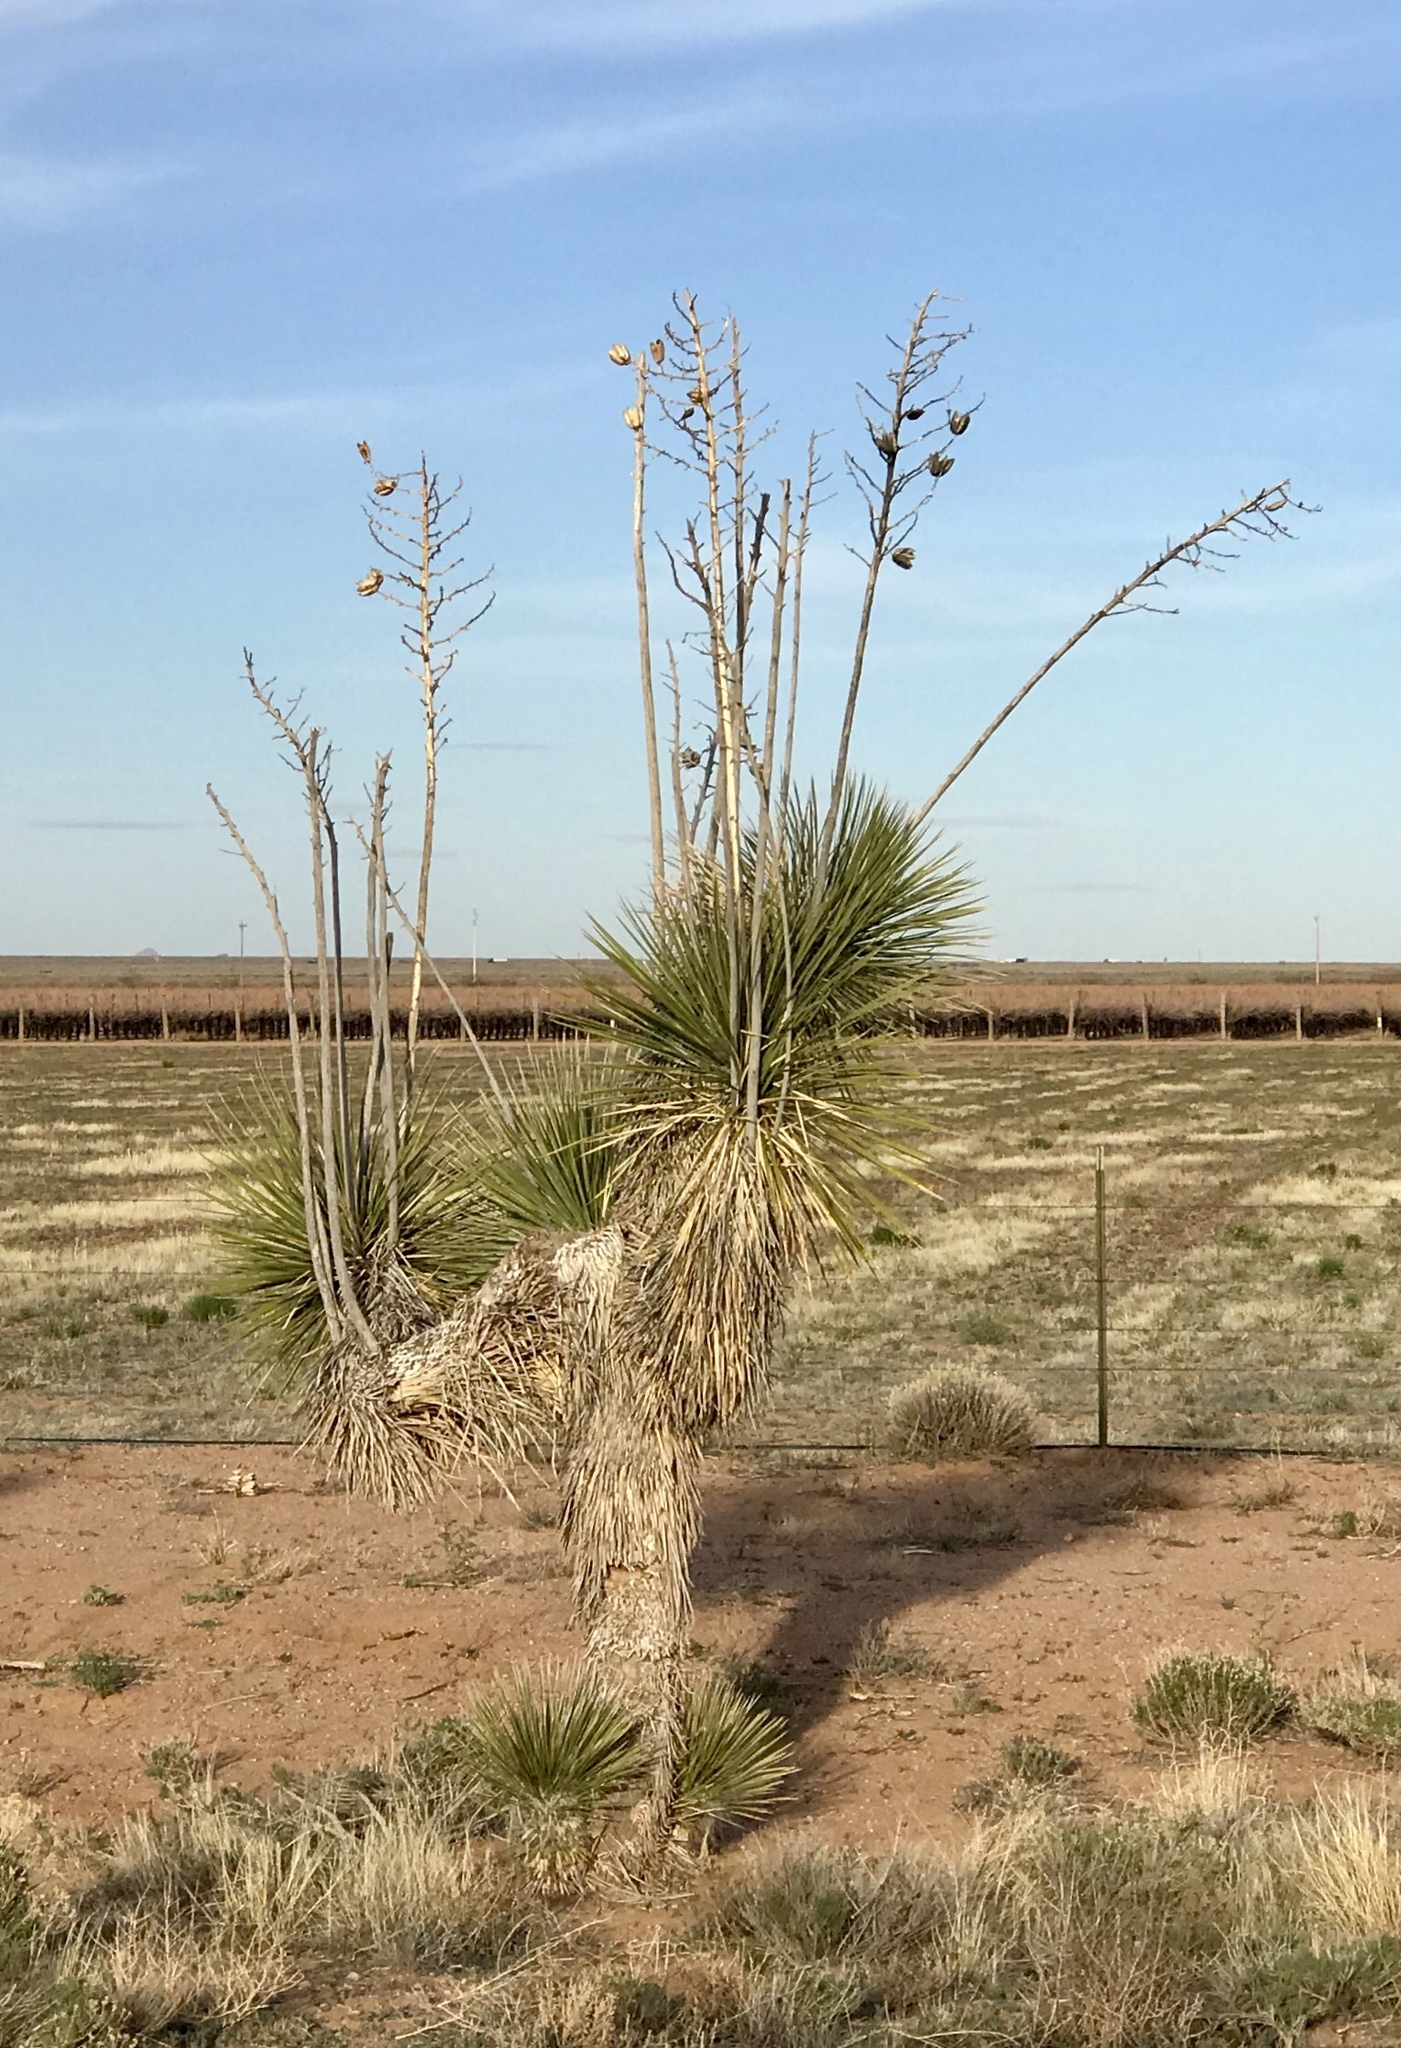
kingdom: Plantae
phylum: Tracheophyta
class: Liliopsida
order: Asparagales
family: Asparagaceae
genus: Yucca
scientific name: Yucca elata
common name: Palmella
